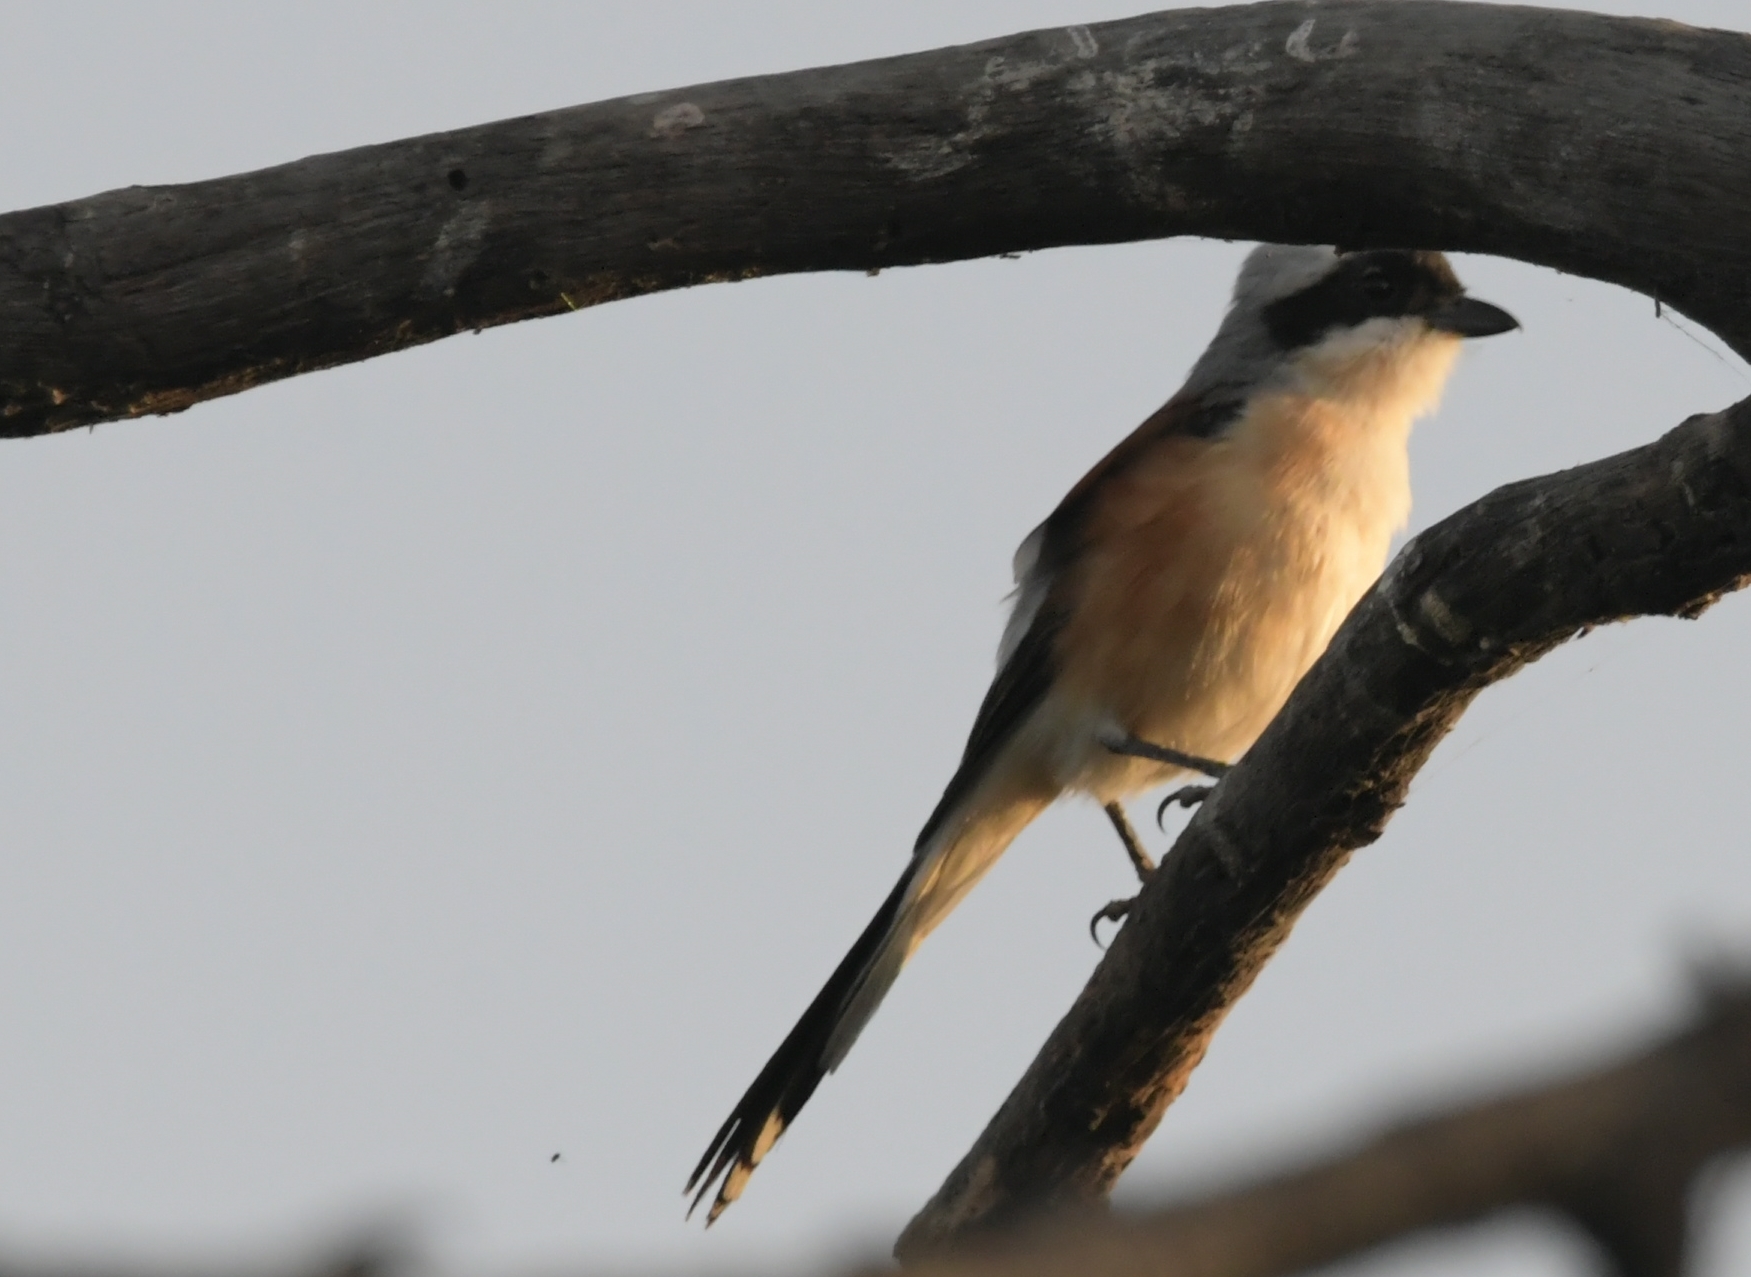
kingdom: Animalia
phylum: Chordata
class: Aves
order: Passeriformes
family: Laniidae
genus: Lanius
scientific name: Lanius schach
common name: Long-tailed shrike
